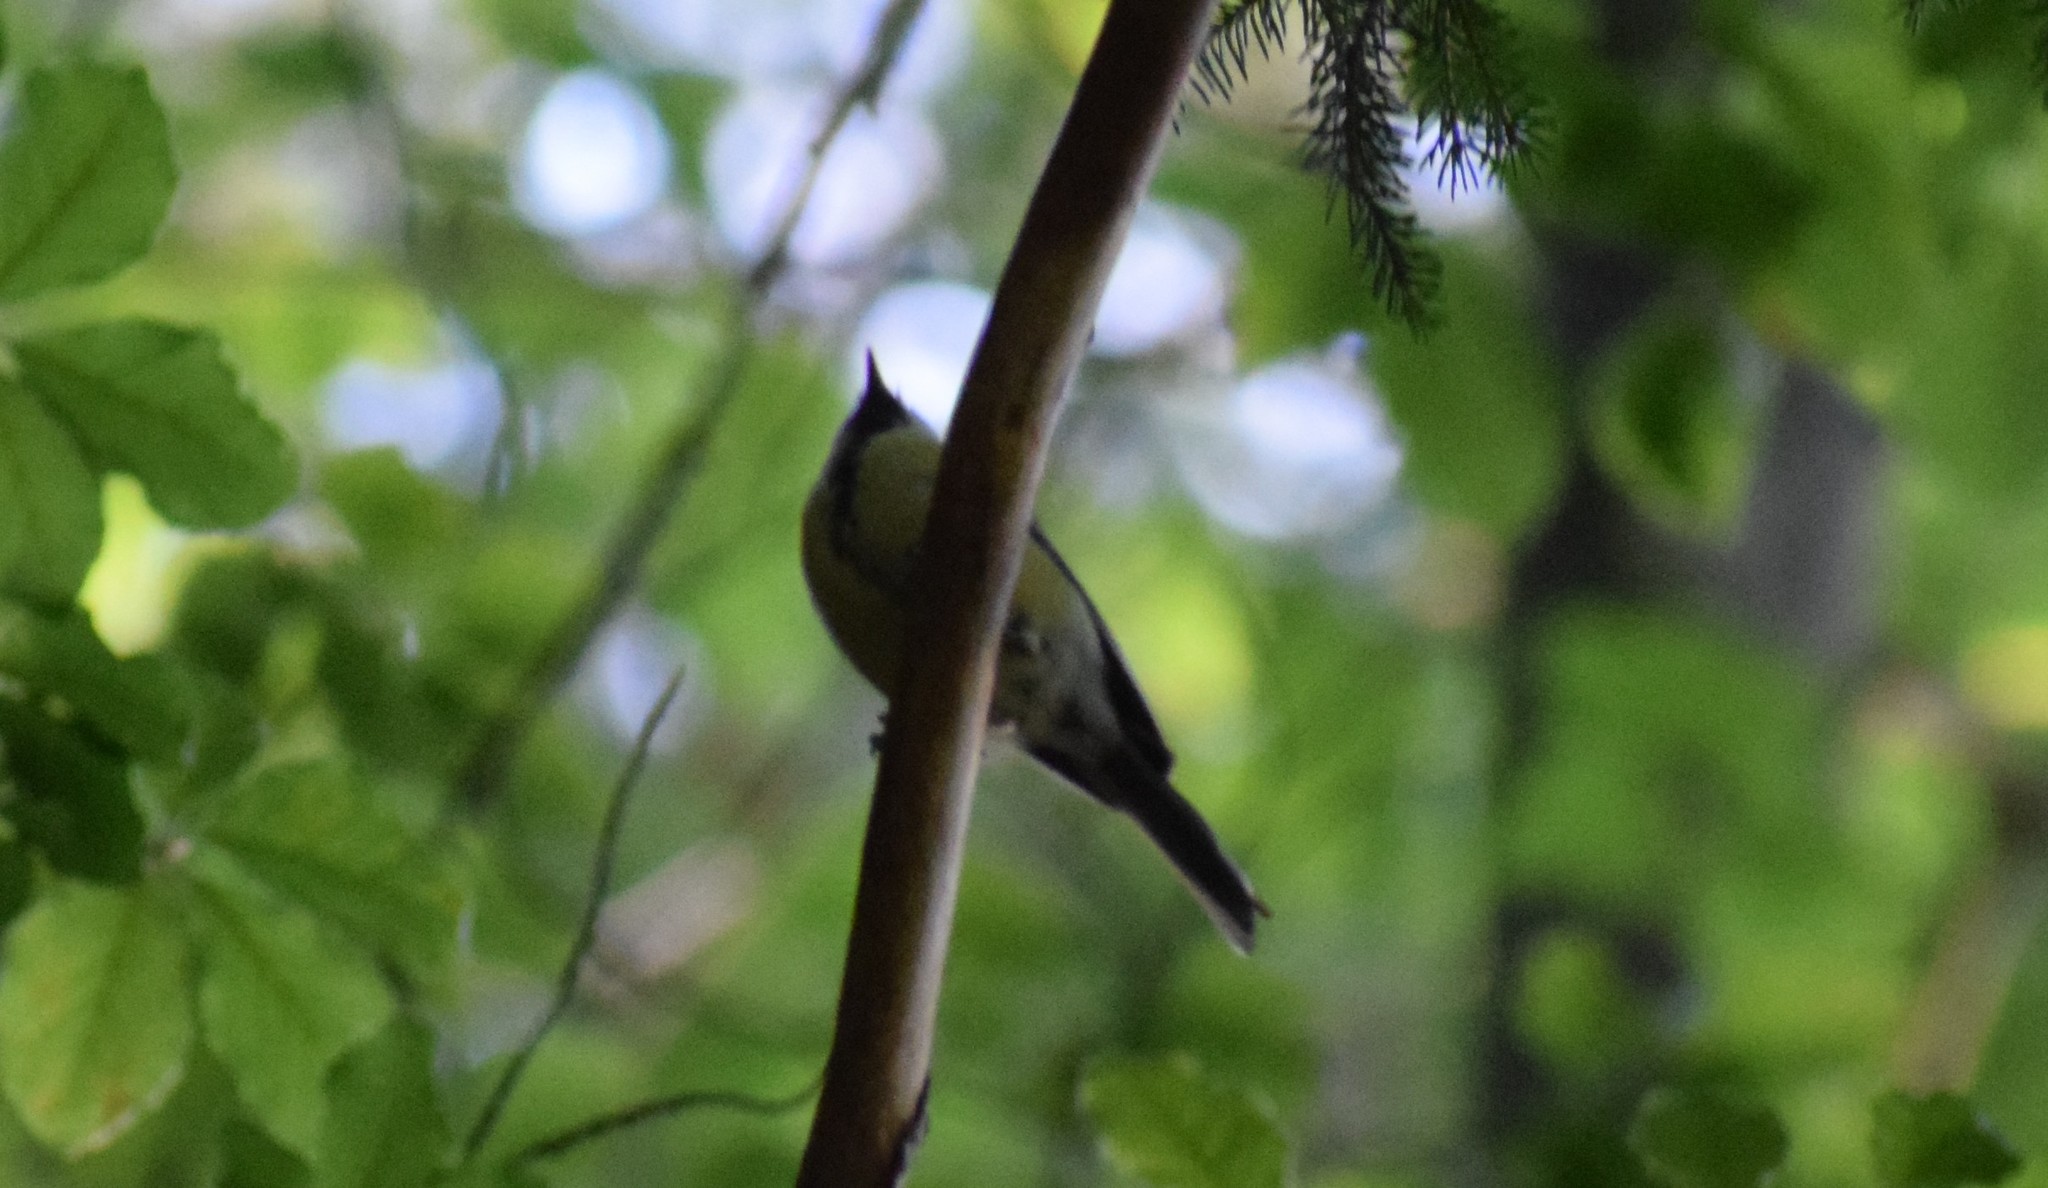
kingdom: Animalia
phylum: Chordata
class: Aves
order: Passeriformes
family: Paridae
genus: Parus
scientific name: Parus major
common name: Great tit
